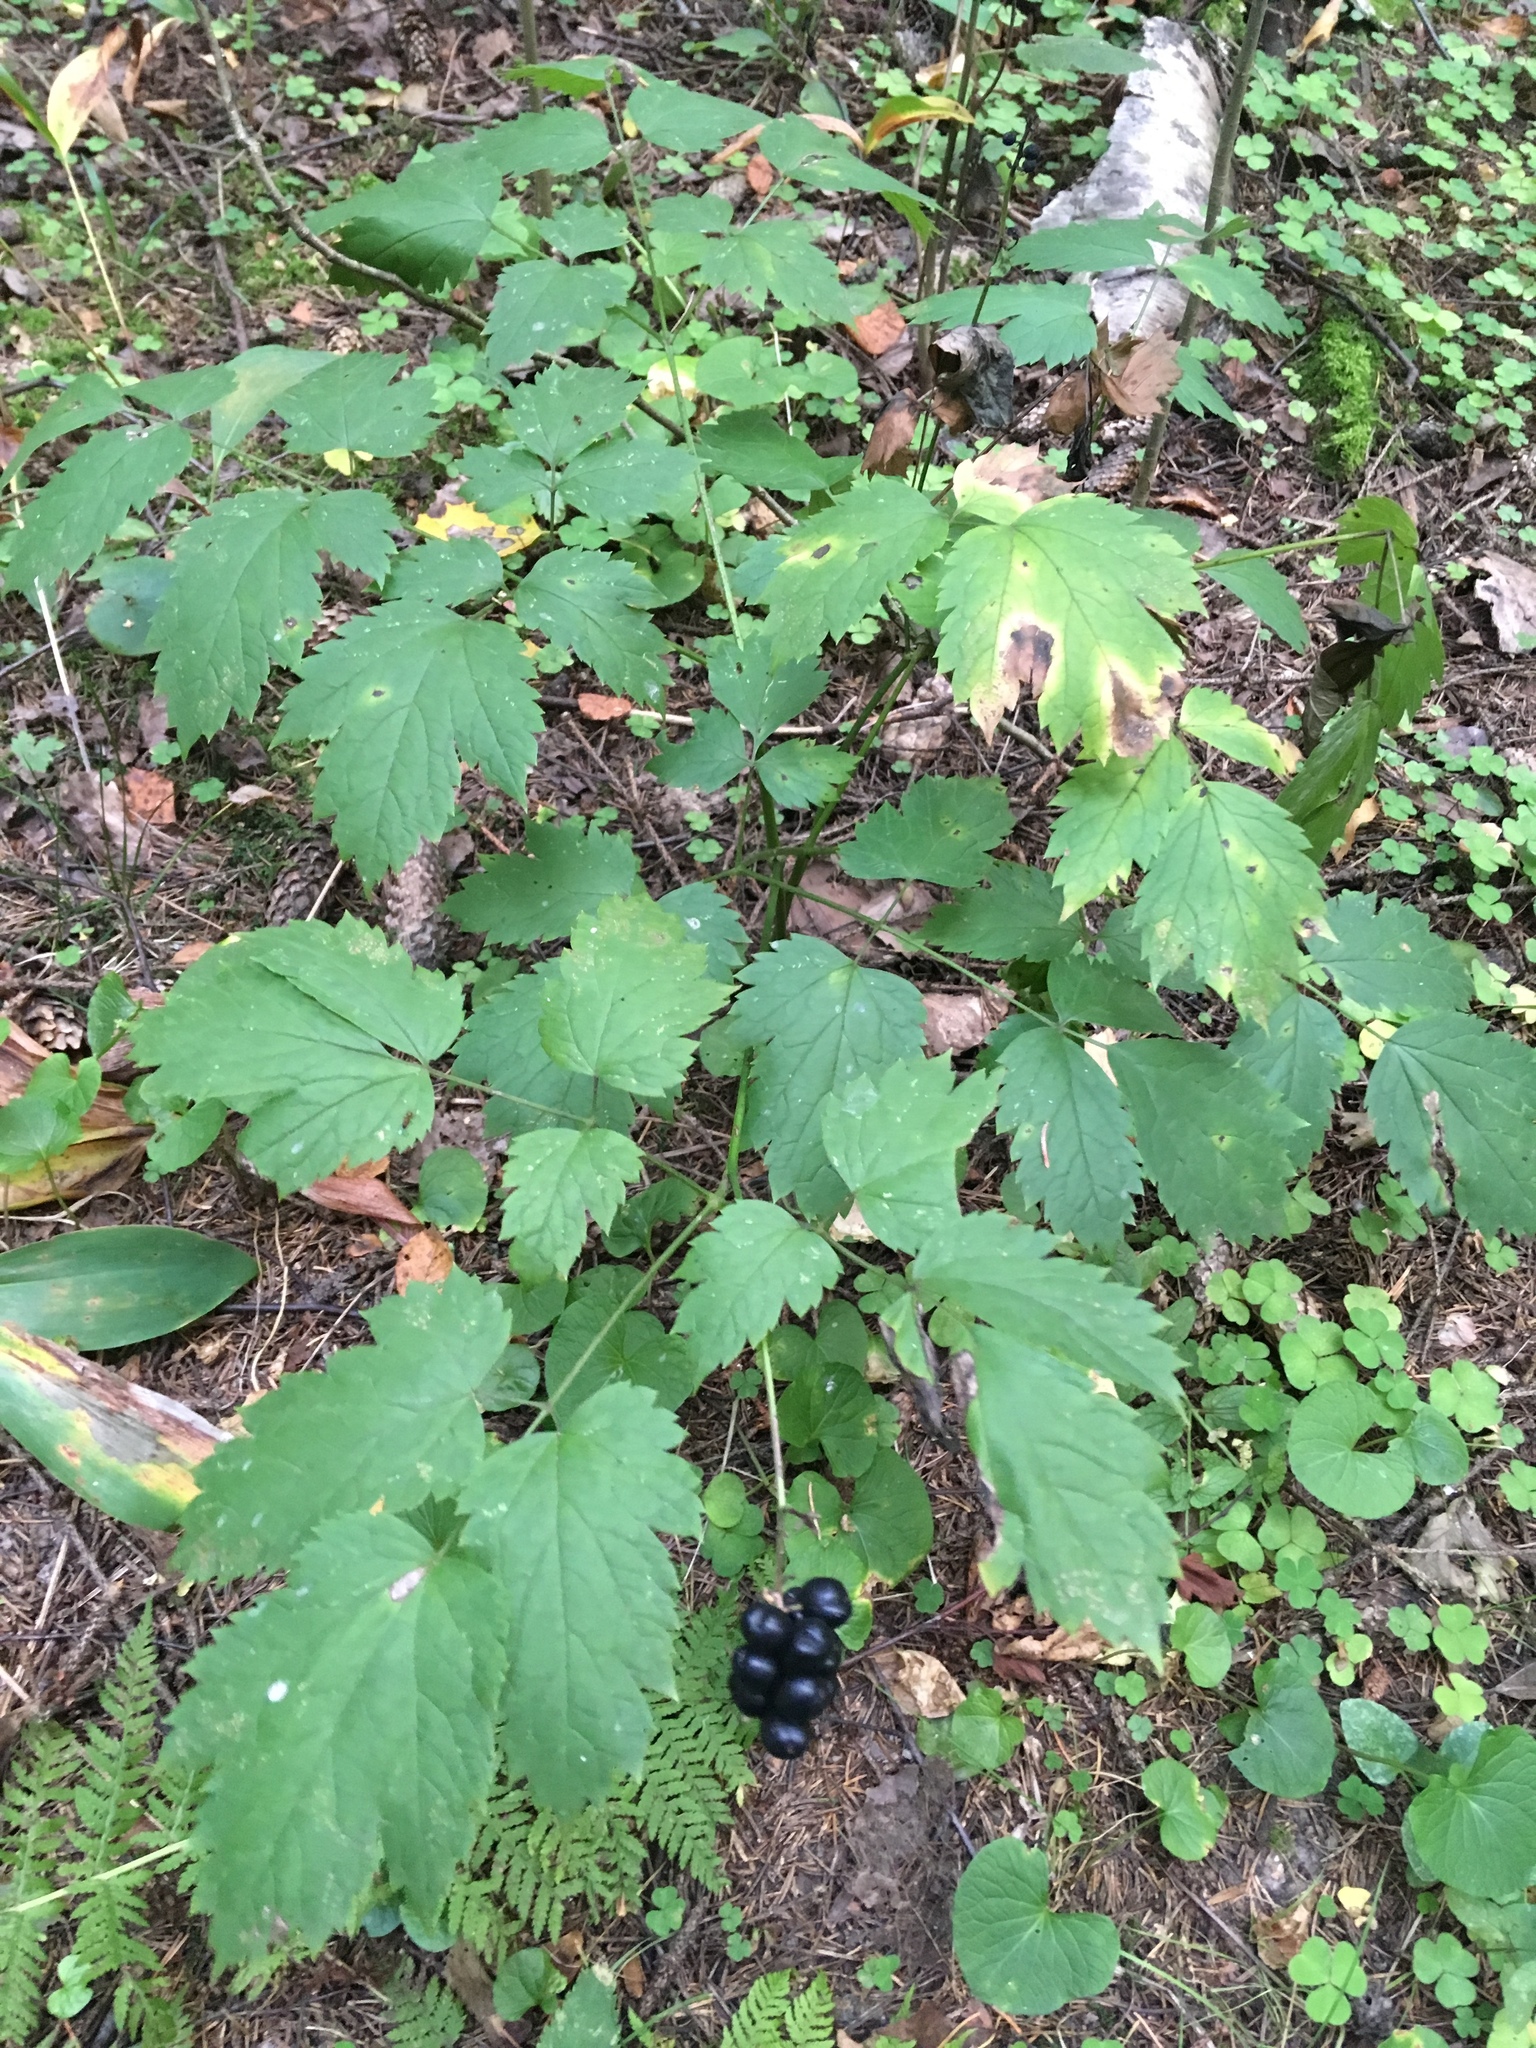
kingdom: Plantae
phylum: Tracheophyta
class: Magnoliopsida
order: Ranunculales
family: Ranunculaceae
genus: Actaea
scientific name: Actaea spicata
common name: Baneberry
